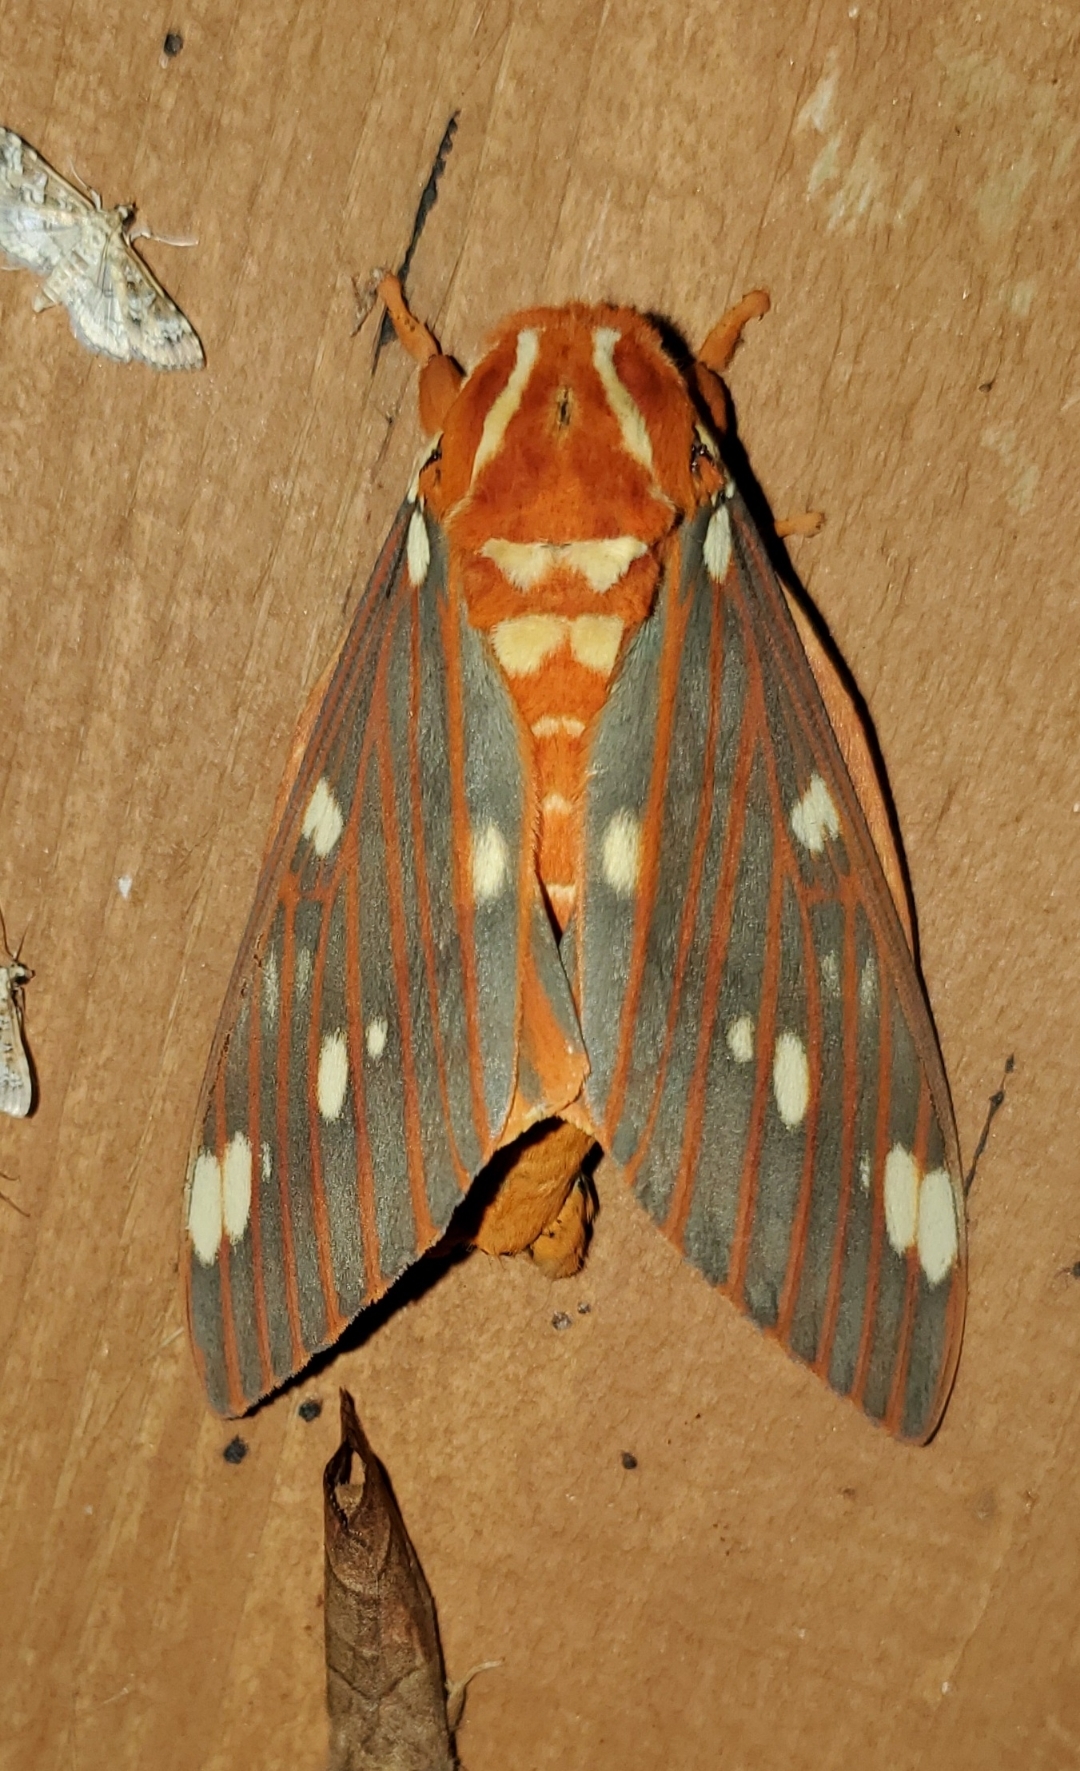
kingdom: Animalia
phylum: Arthropoda
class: Insecta
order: Lepidoptera
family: Saturniidae
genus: Citheronia
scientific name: Citheronia regalis
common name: Hickory horned devil
